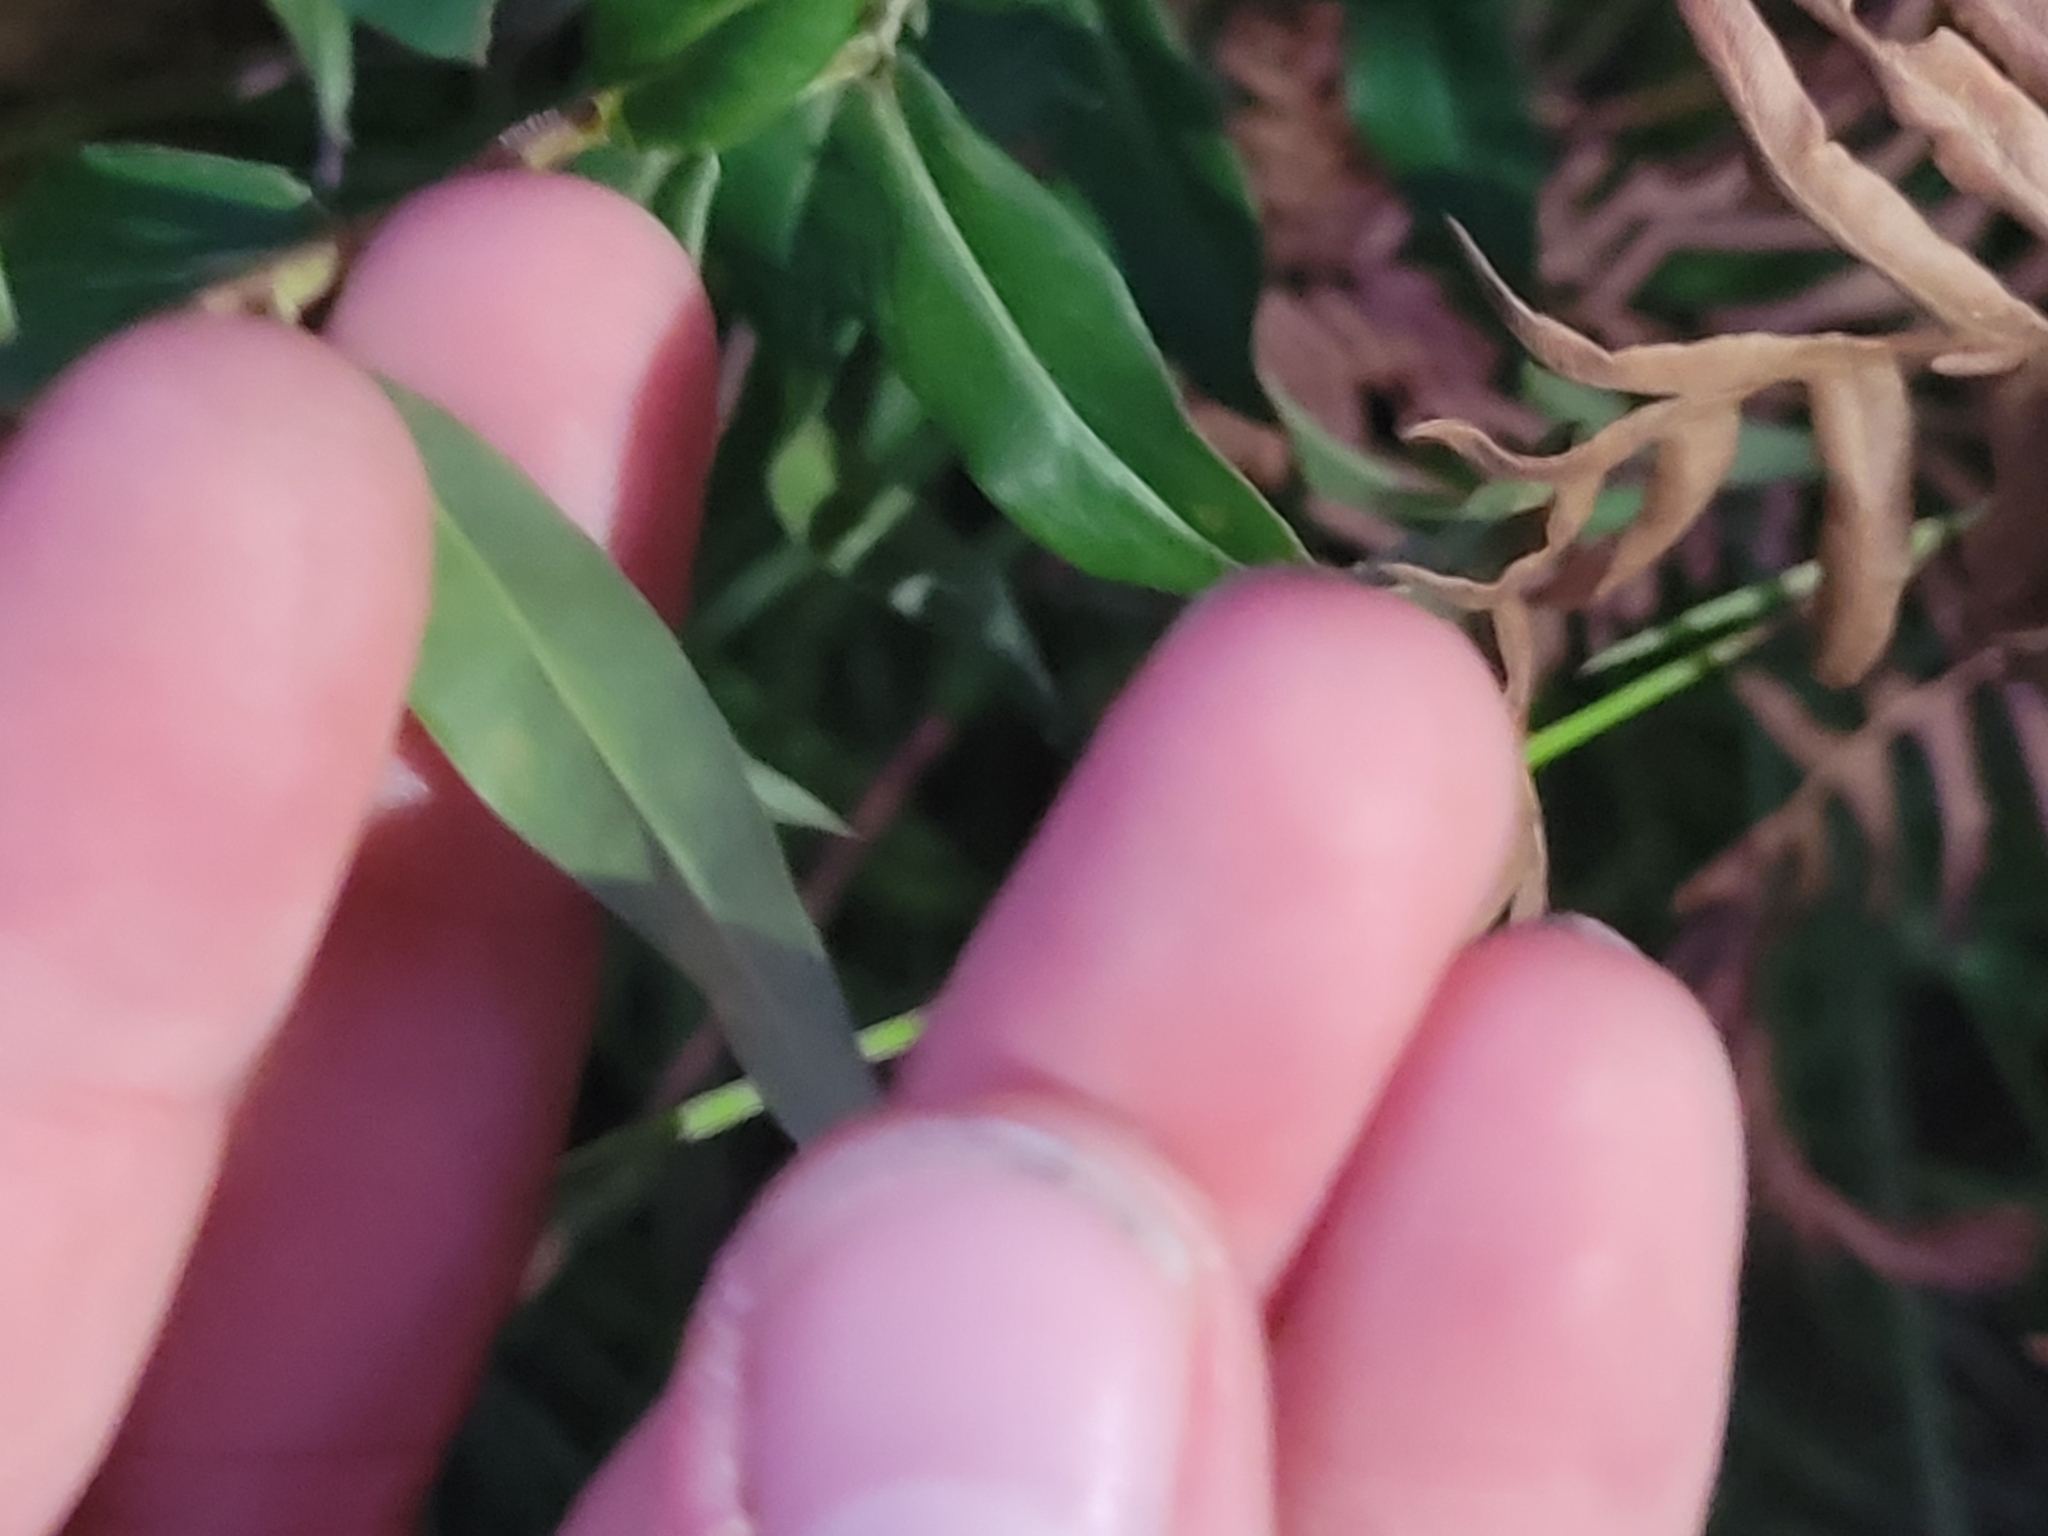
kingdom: Plantae
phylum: Tracheophyta
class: Magnoliopsida
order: Asterales
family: Asteraceae
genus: Solidago
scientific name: Solidago odora
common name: Anise-scented goldenrod
